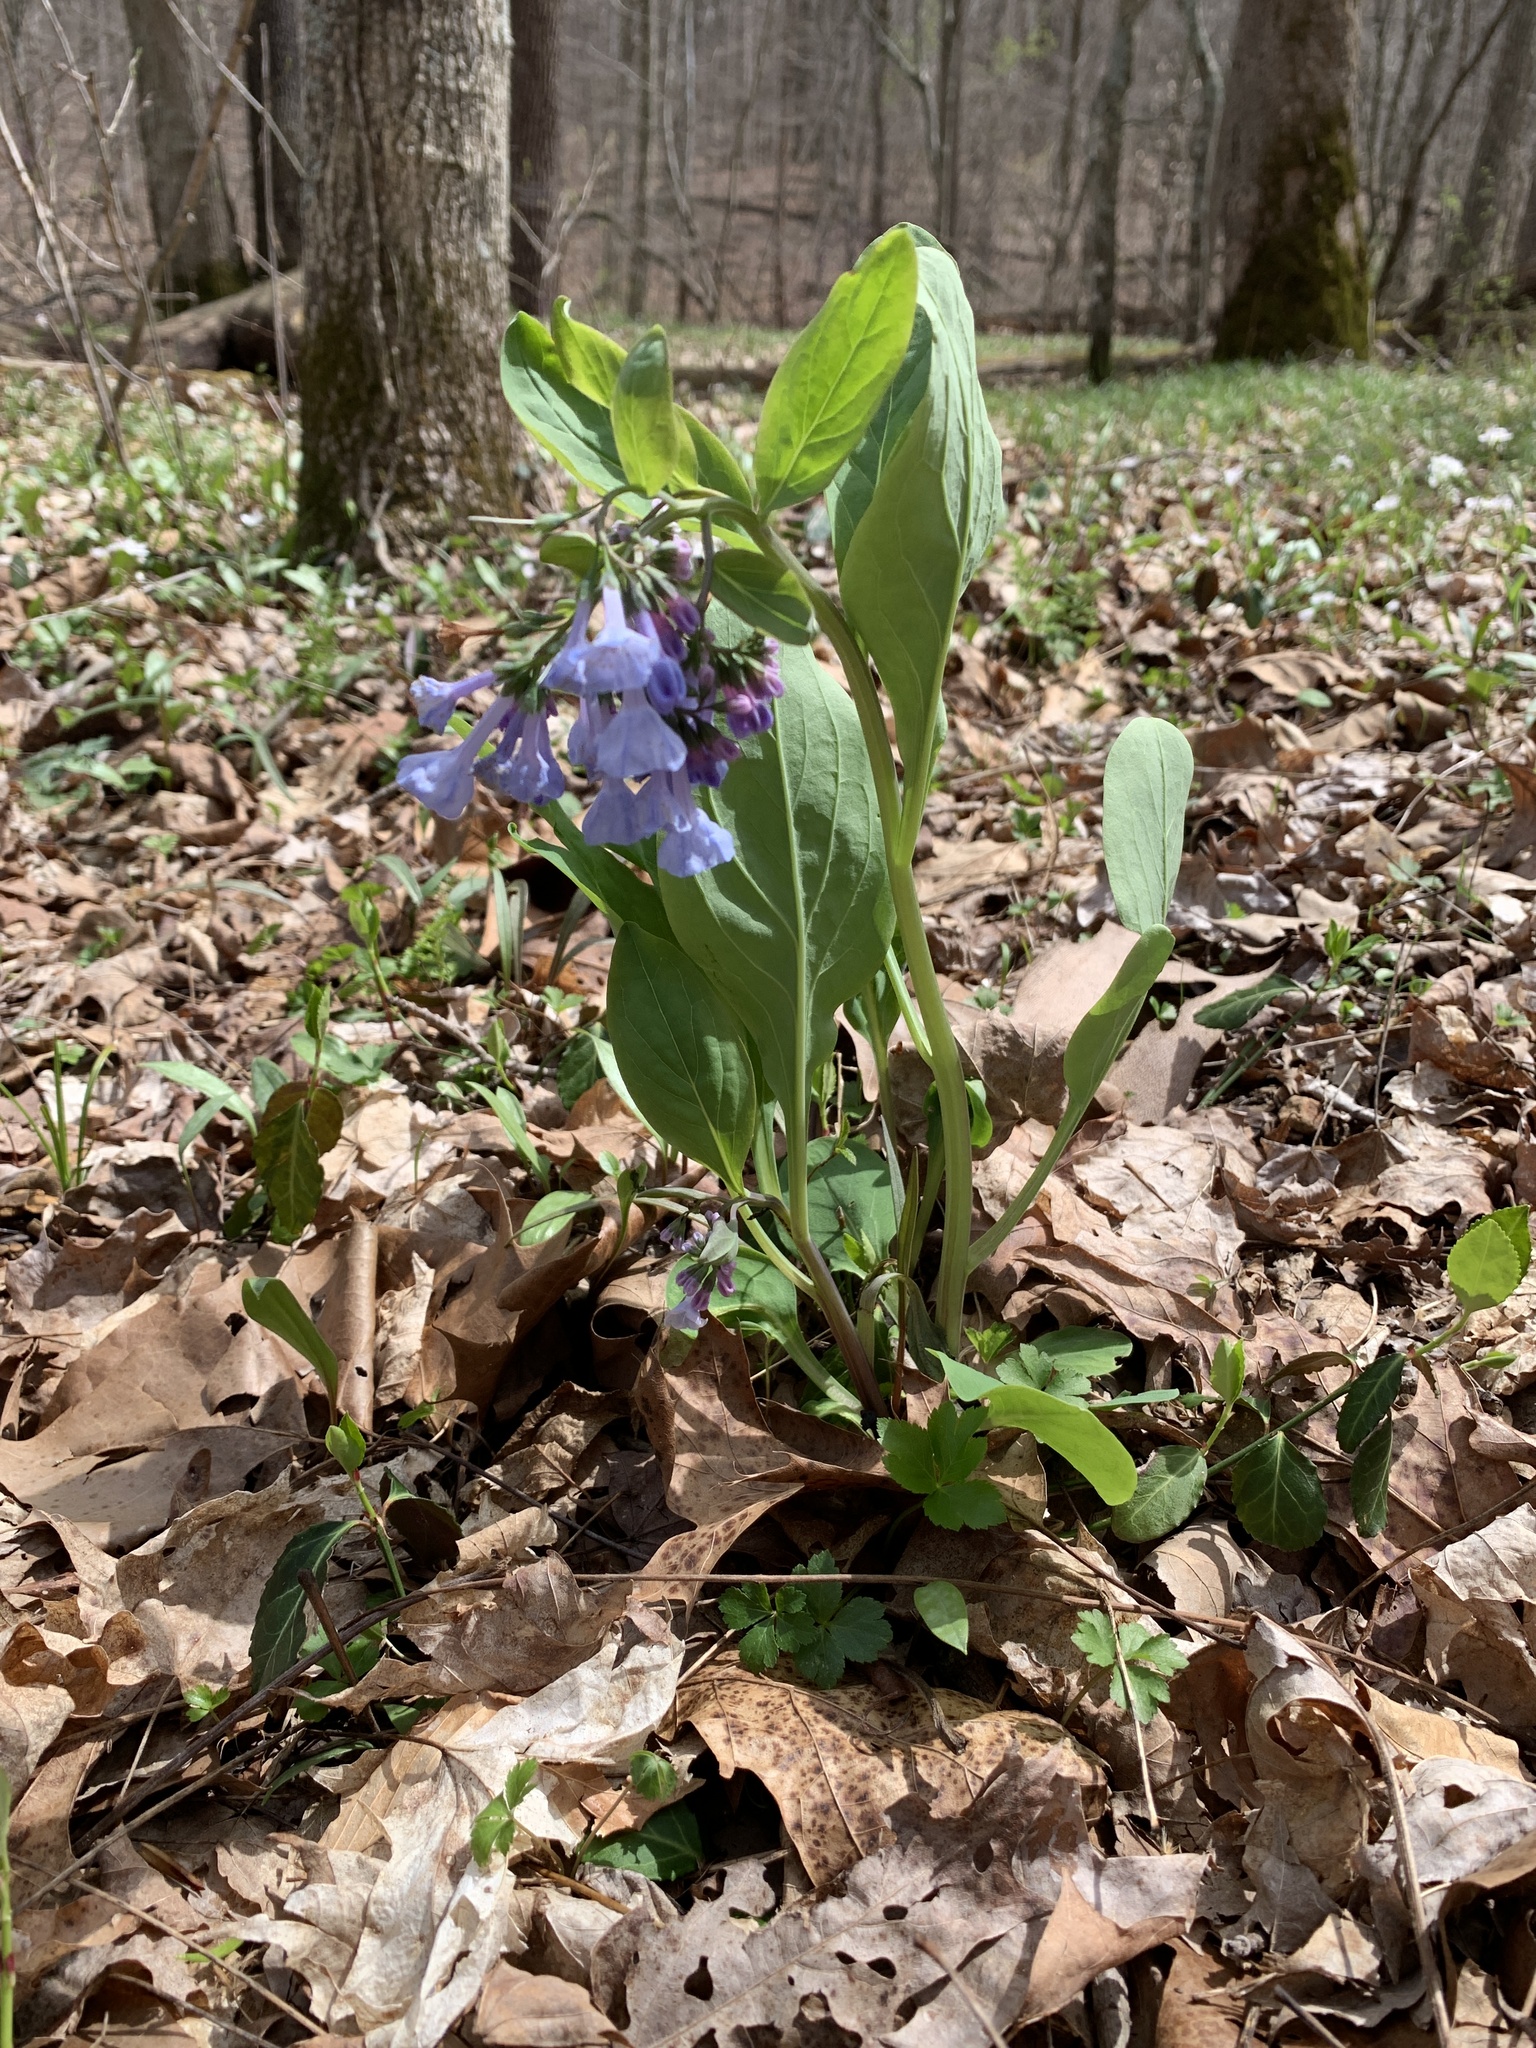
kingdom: Plantae
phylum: Tracheophyta
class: Magnoliopsida
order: Boraginales
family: Boraginaceae
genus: Mertensia
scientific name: Mertensia virginica
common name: Virginia bluebells
